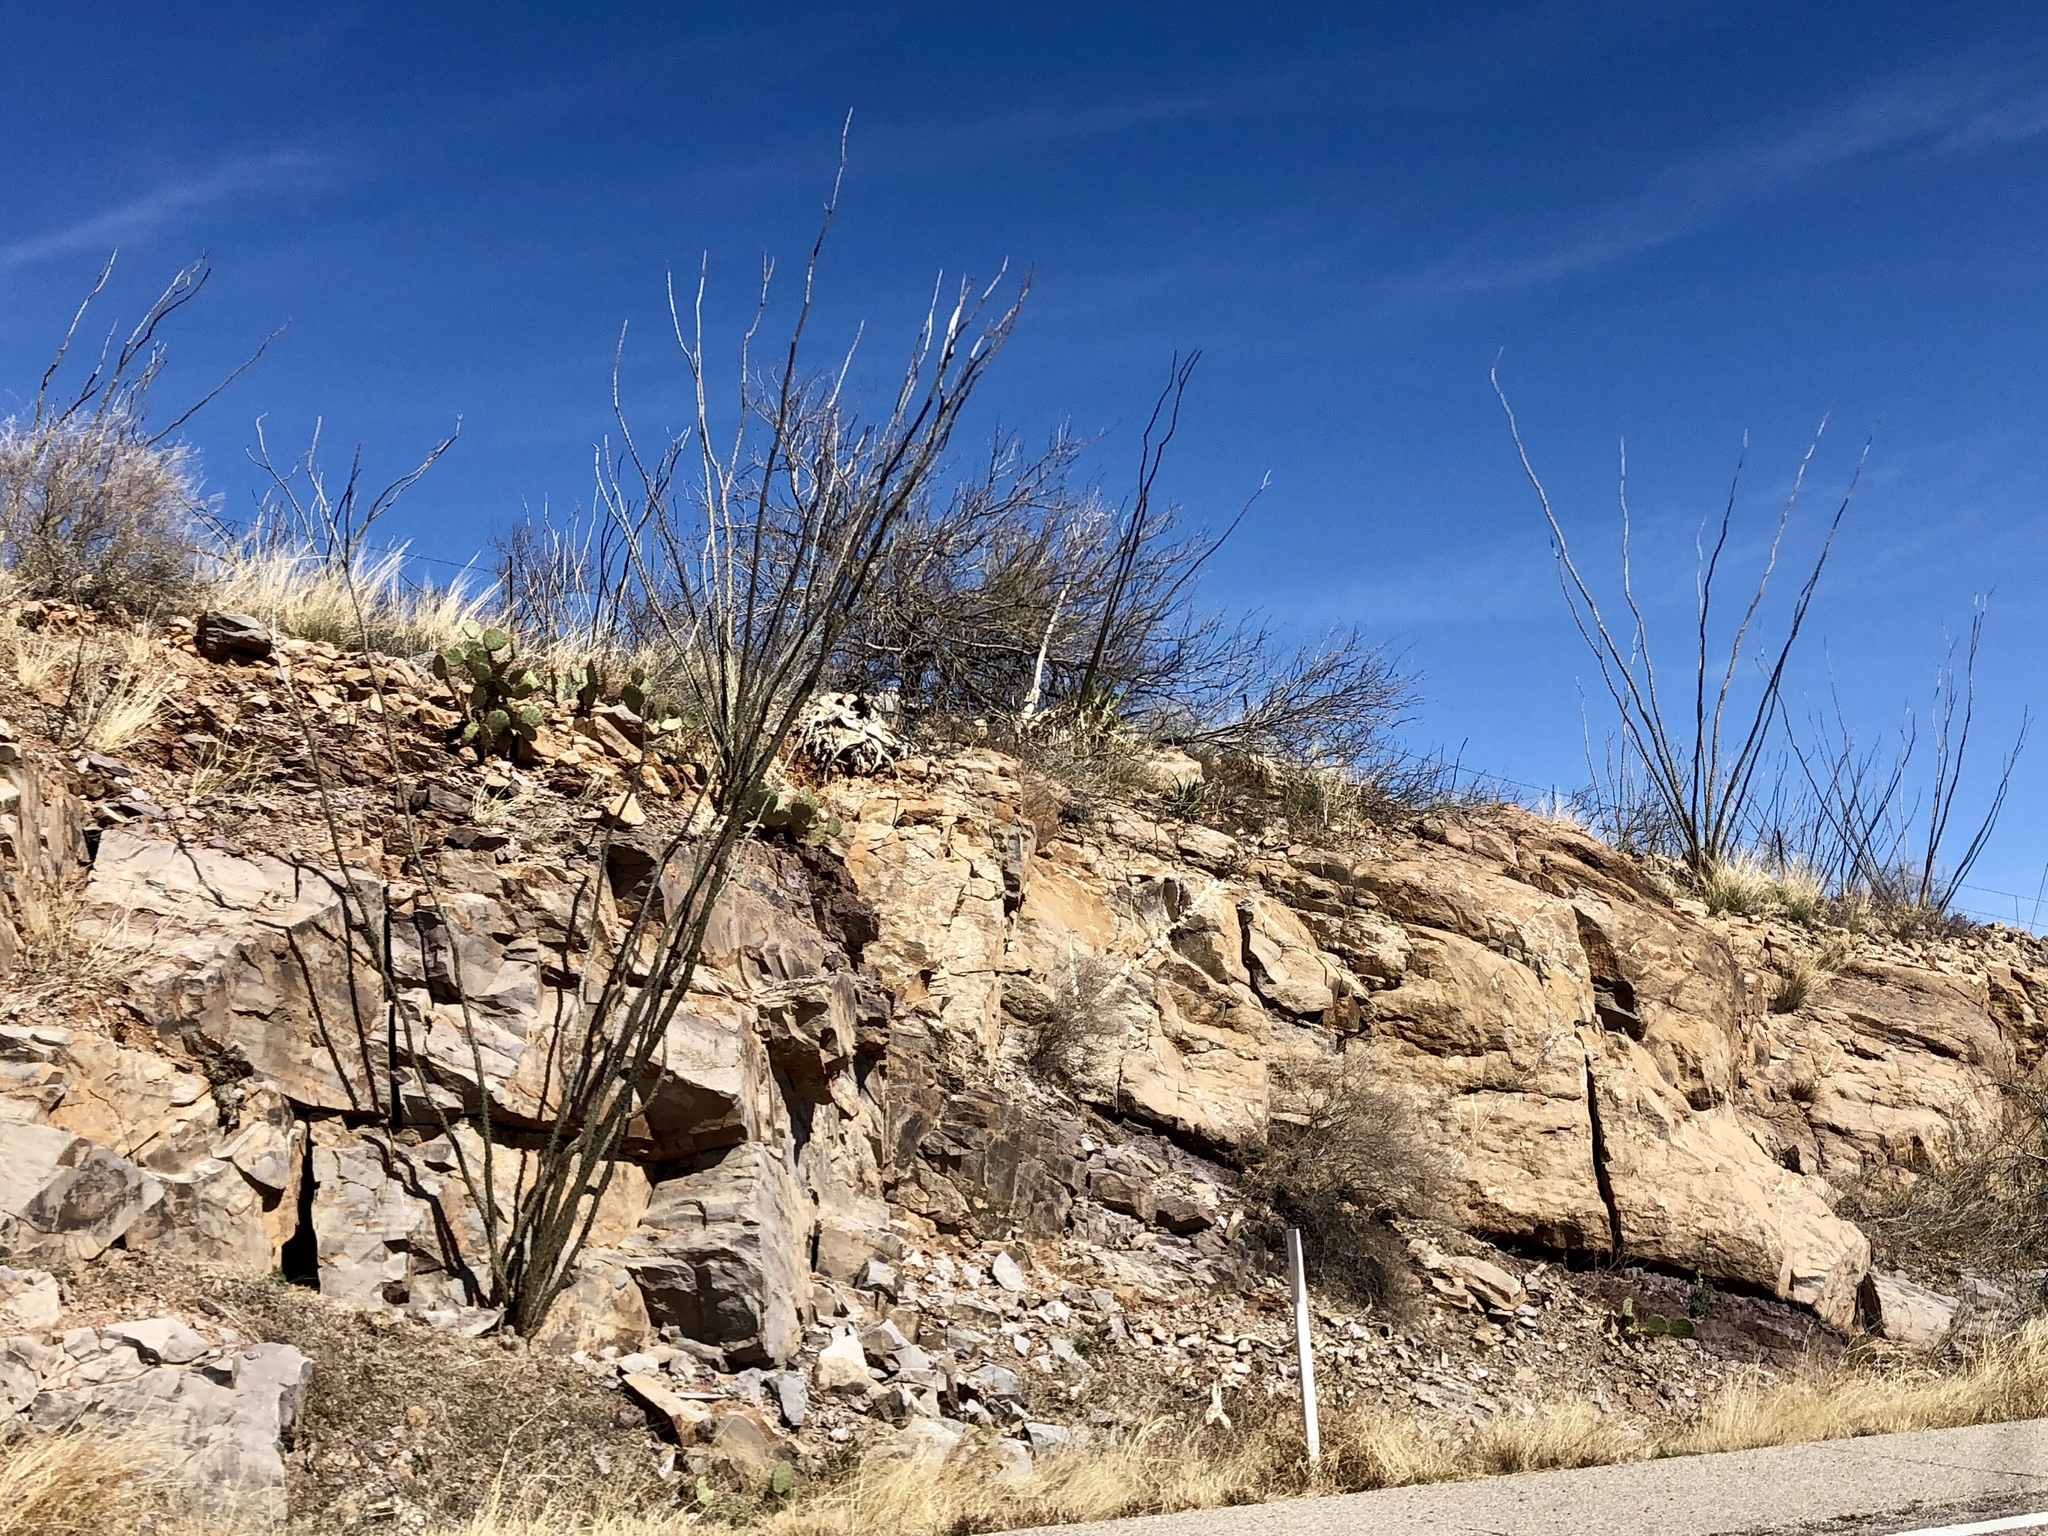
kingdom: Plantae
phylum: Tracheophyta
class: Magnoliopsida
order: Ericales
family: Fouquieriaceae
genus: Fouquieria
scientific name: Fouquieria splendens
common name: Vine-cactus
